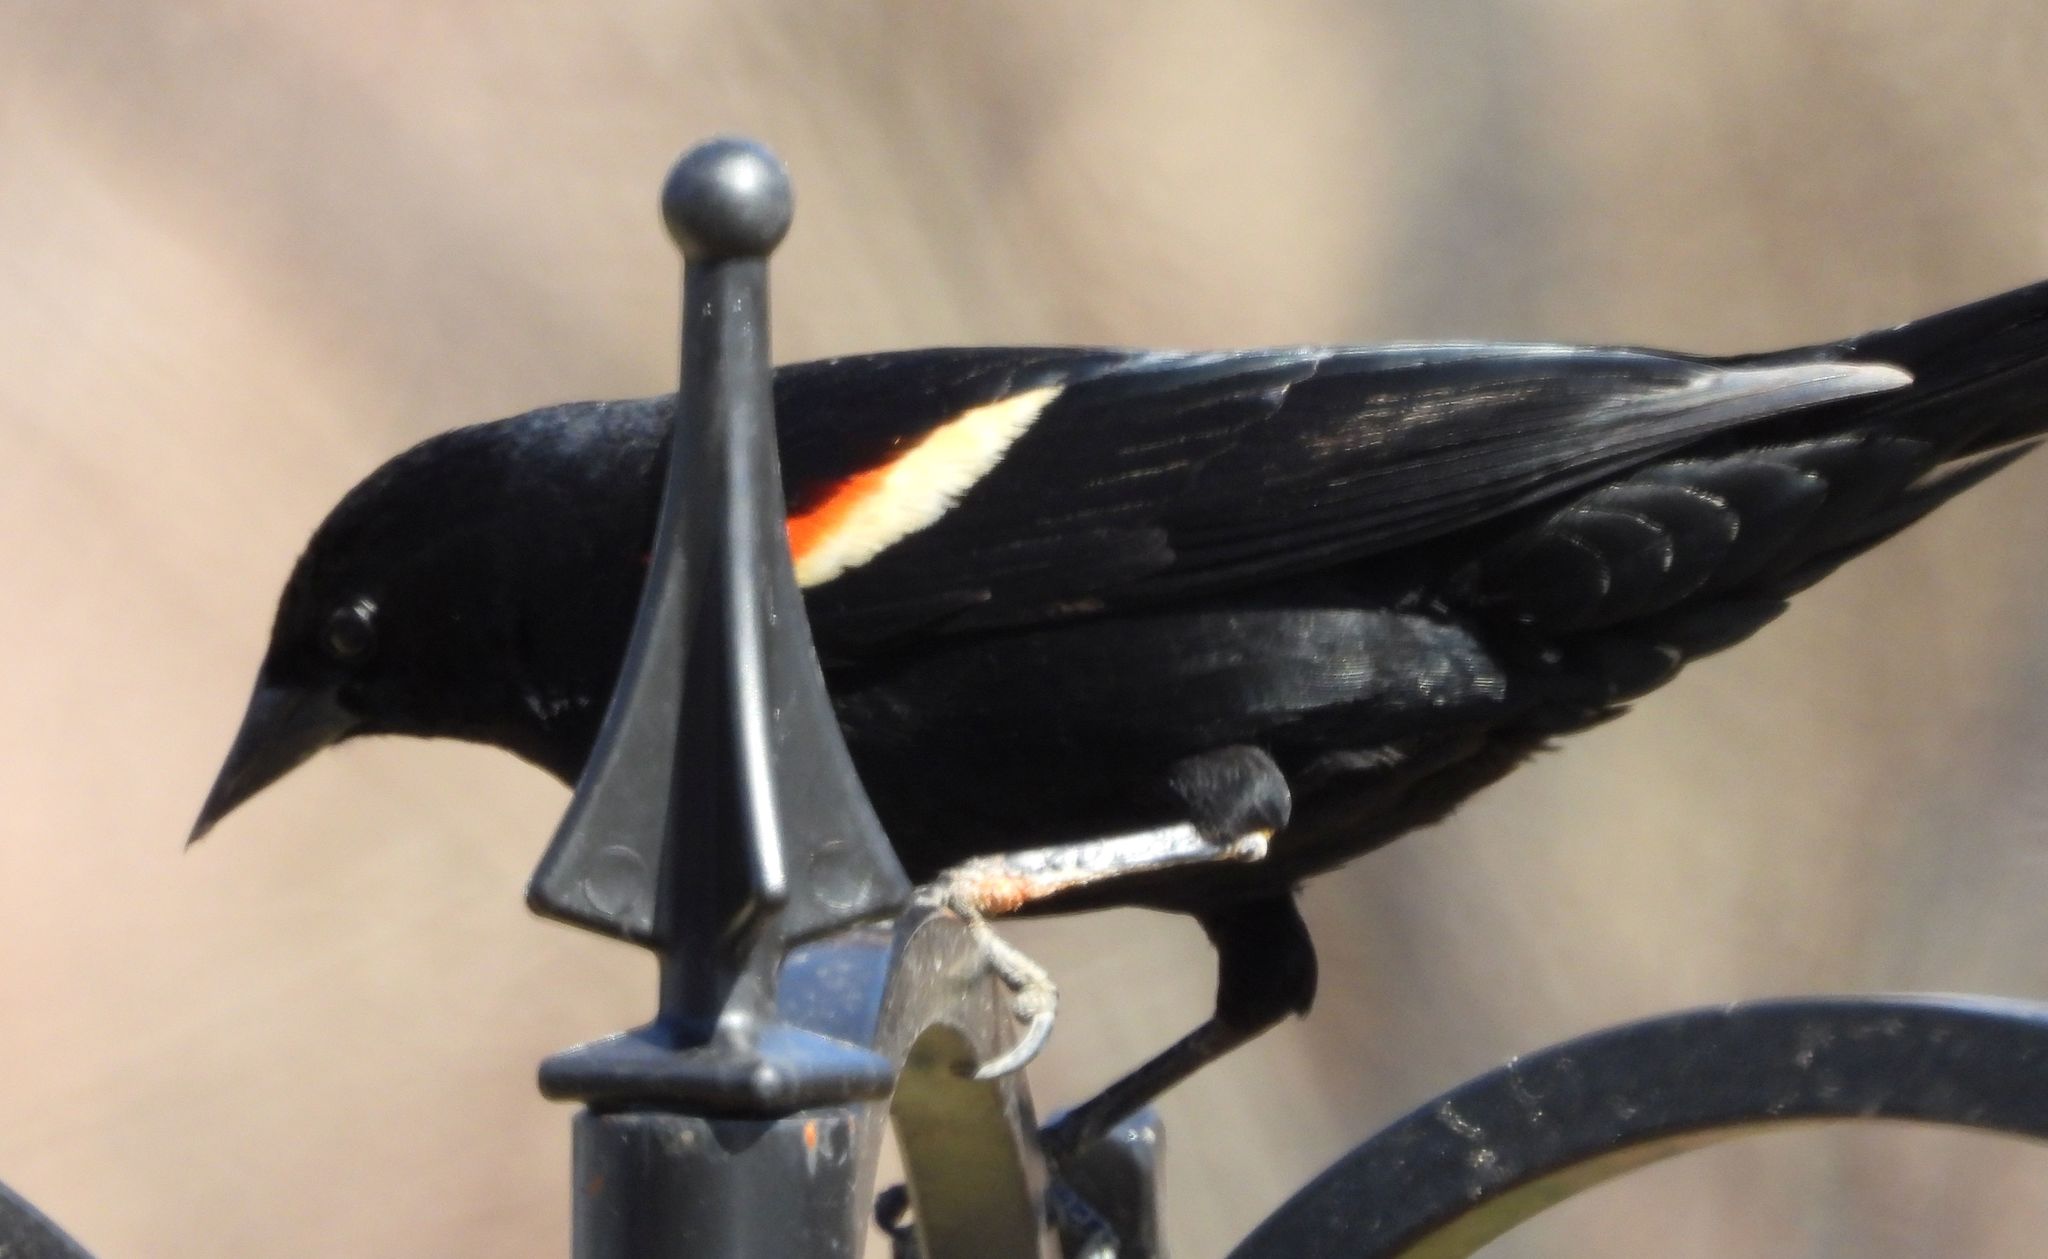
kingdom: Animalia
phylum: Chordata
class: Aves
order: Passeriformes
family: Icteridae
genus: Agelaius
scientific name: Agelaius phoeniceus
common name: Red-winged blackbird
